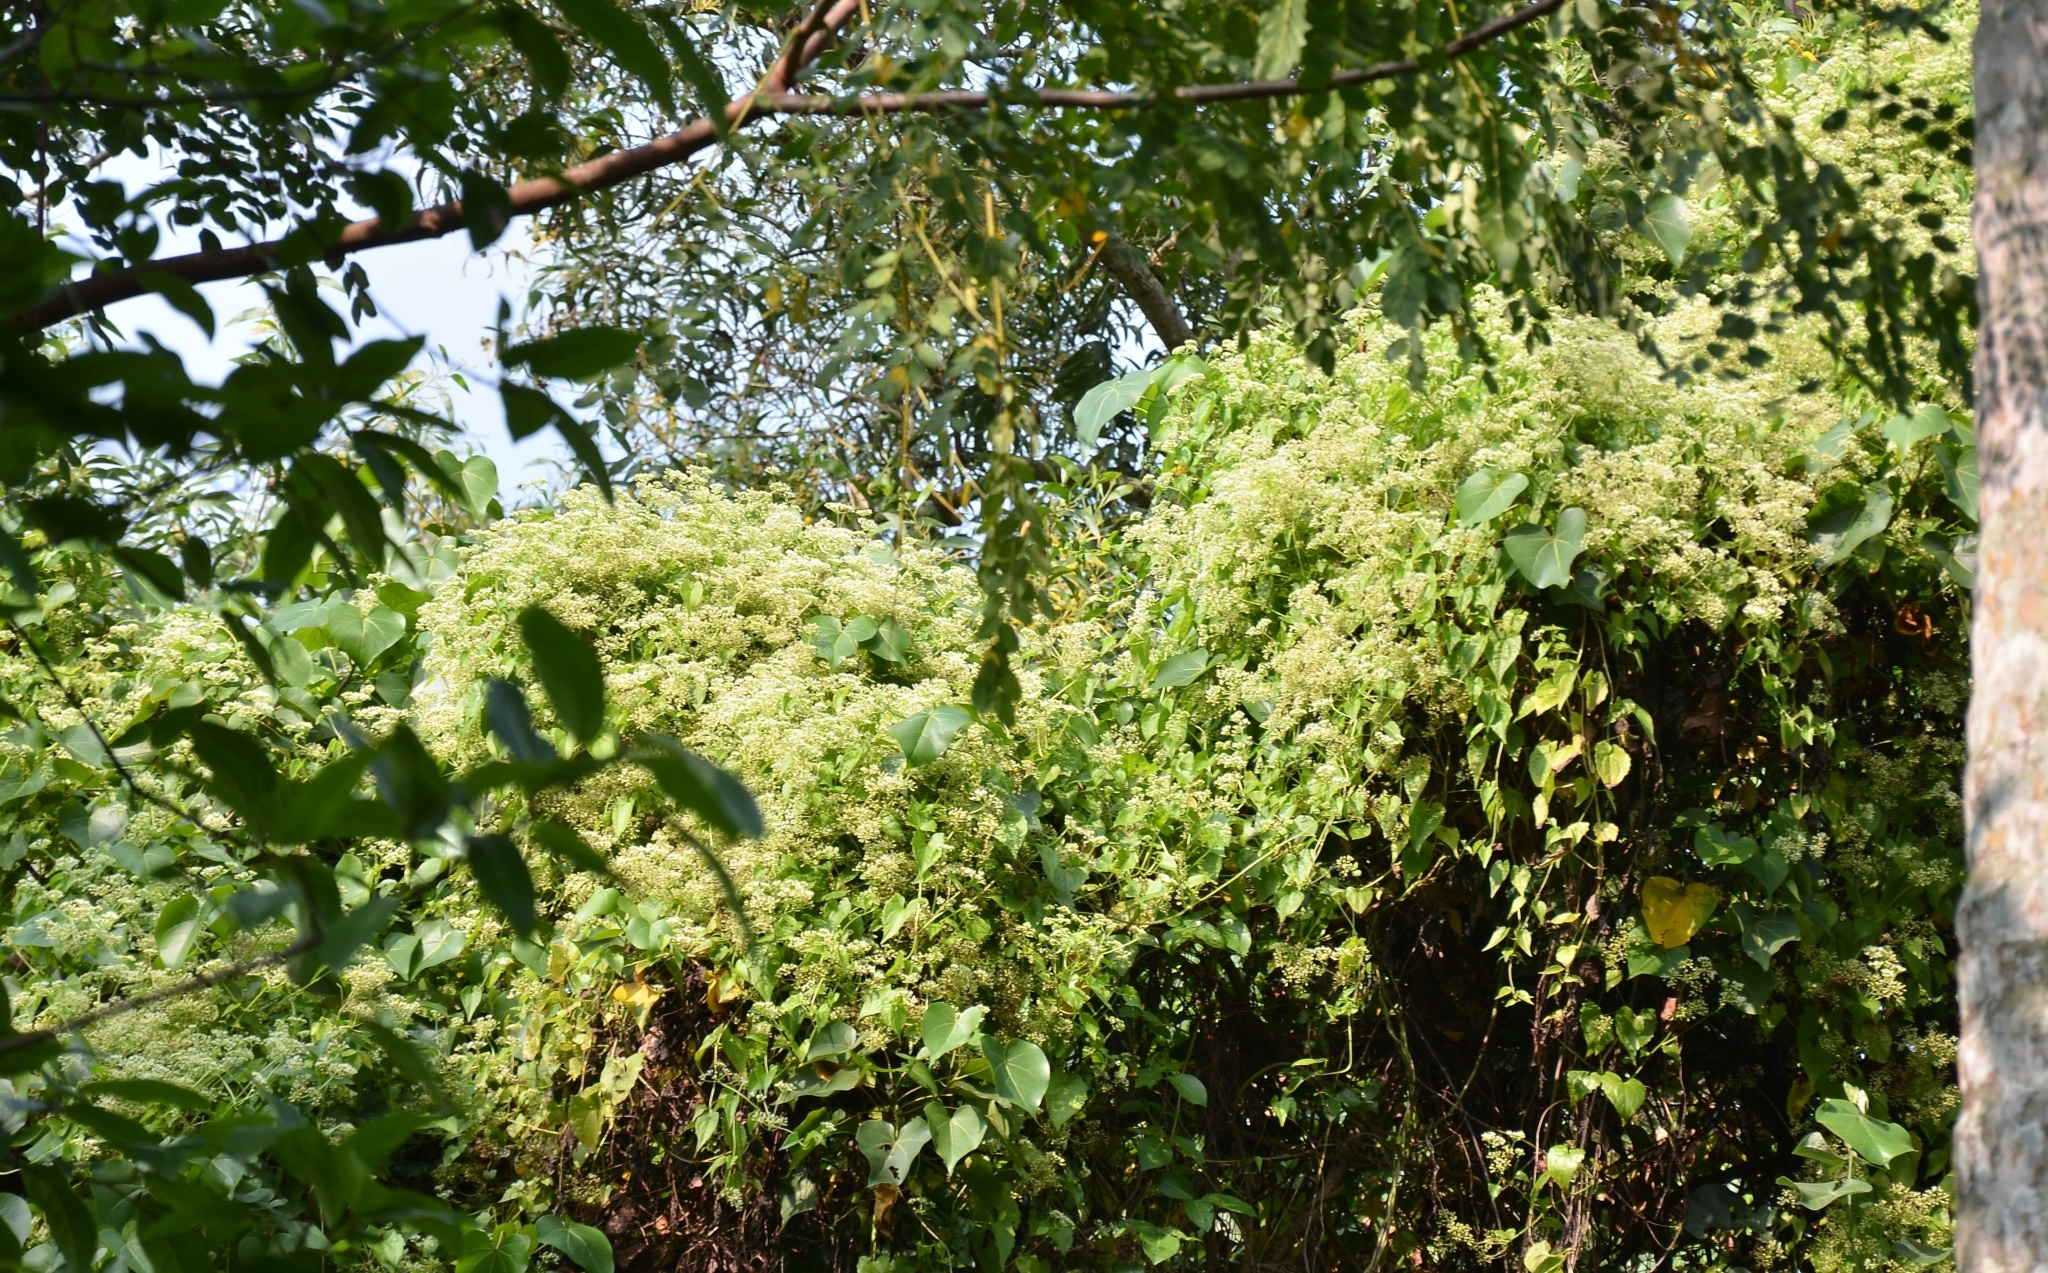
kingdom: Plantae
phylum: Tracheophyta
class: Magnoliopsida
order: Asterales
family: Asteraceae
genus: Mikania
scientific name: Mikania micrantha
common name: Mile-a-minute
